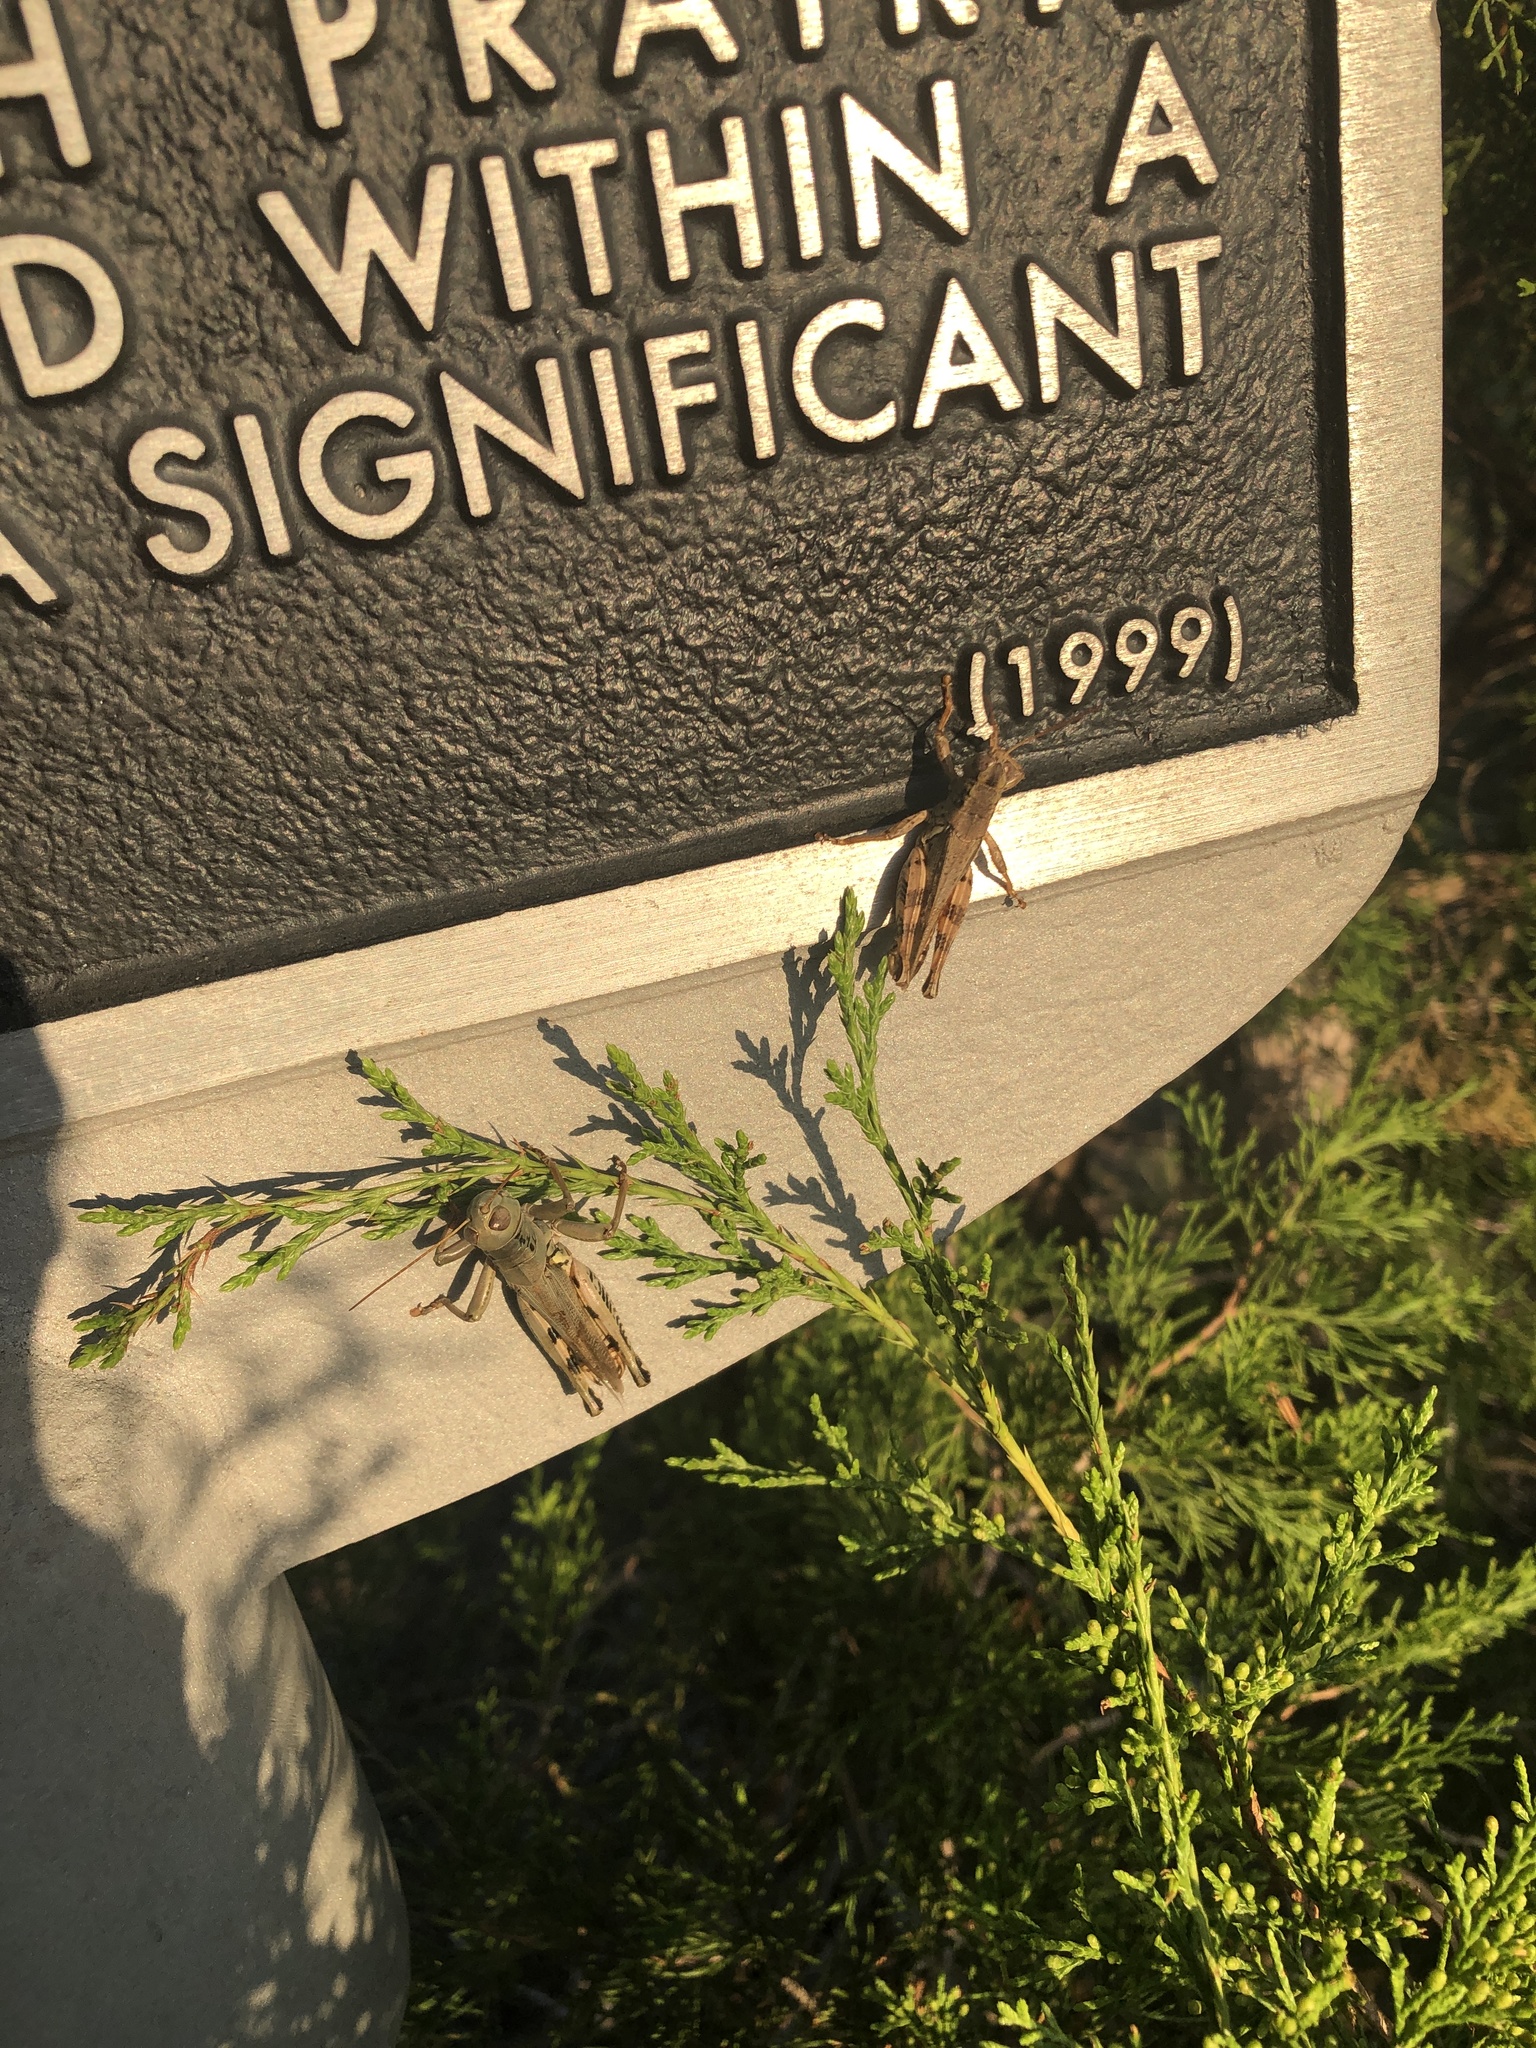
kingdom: Animalia
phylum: Arthropoda
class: Insecta
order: Orthoptera
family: Acrididae
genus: Melanoplus
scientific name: Melanoplus differentialis
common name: Differential grasshopper
